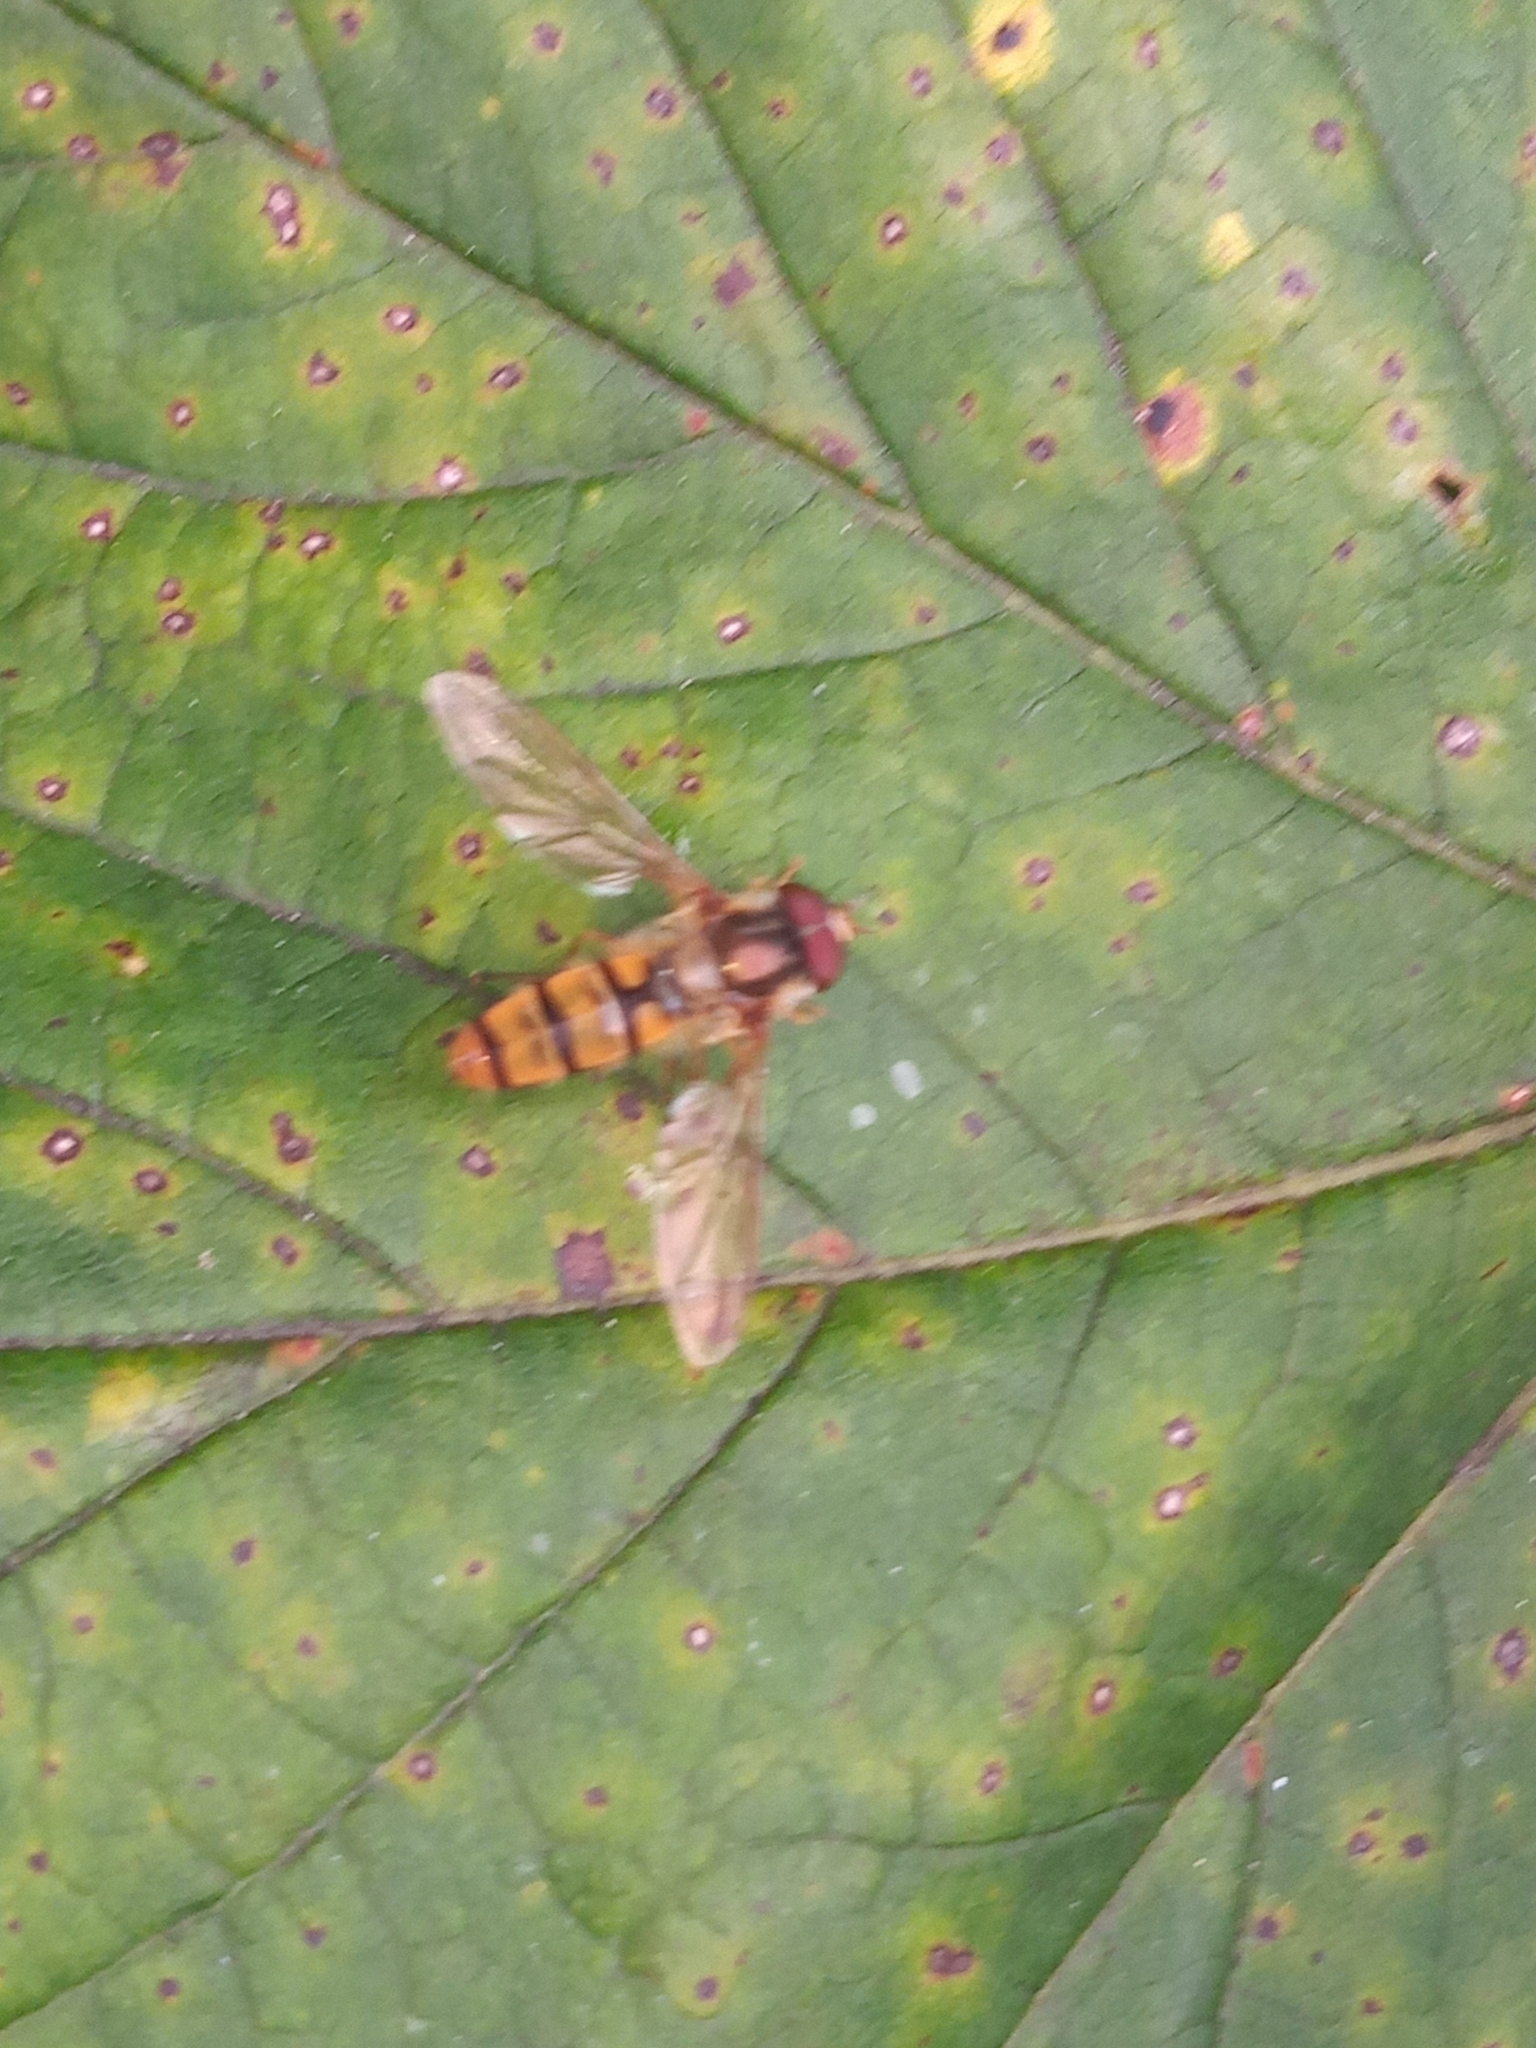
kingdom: Animalia
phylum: Arthropoda
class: Insecta
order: Diptera
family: Syrphidae
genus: Episyrphus
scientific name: Episyrphus balteatus
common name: Marmalade hoverfly
